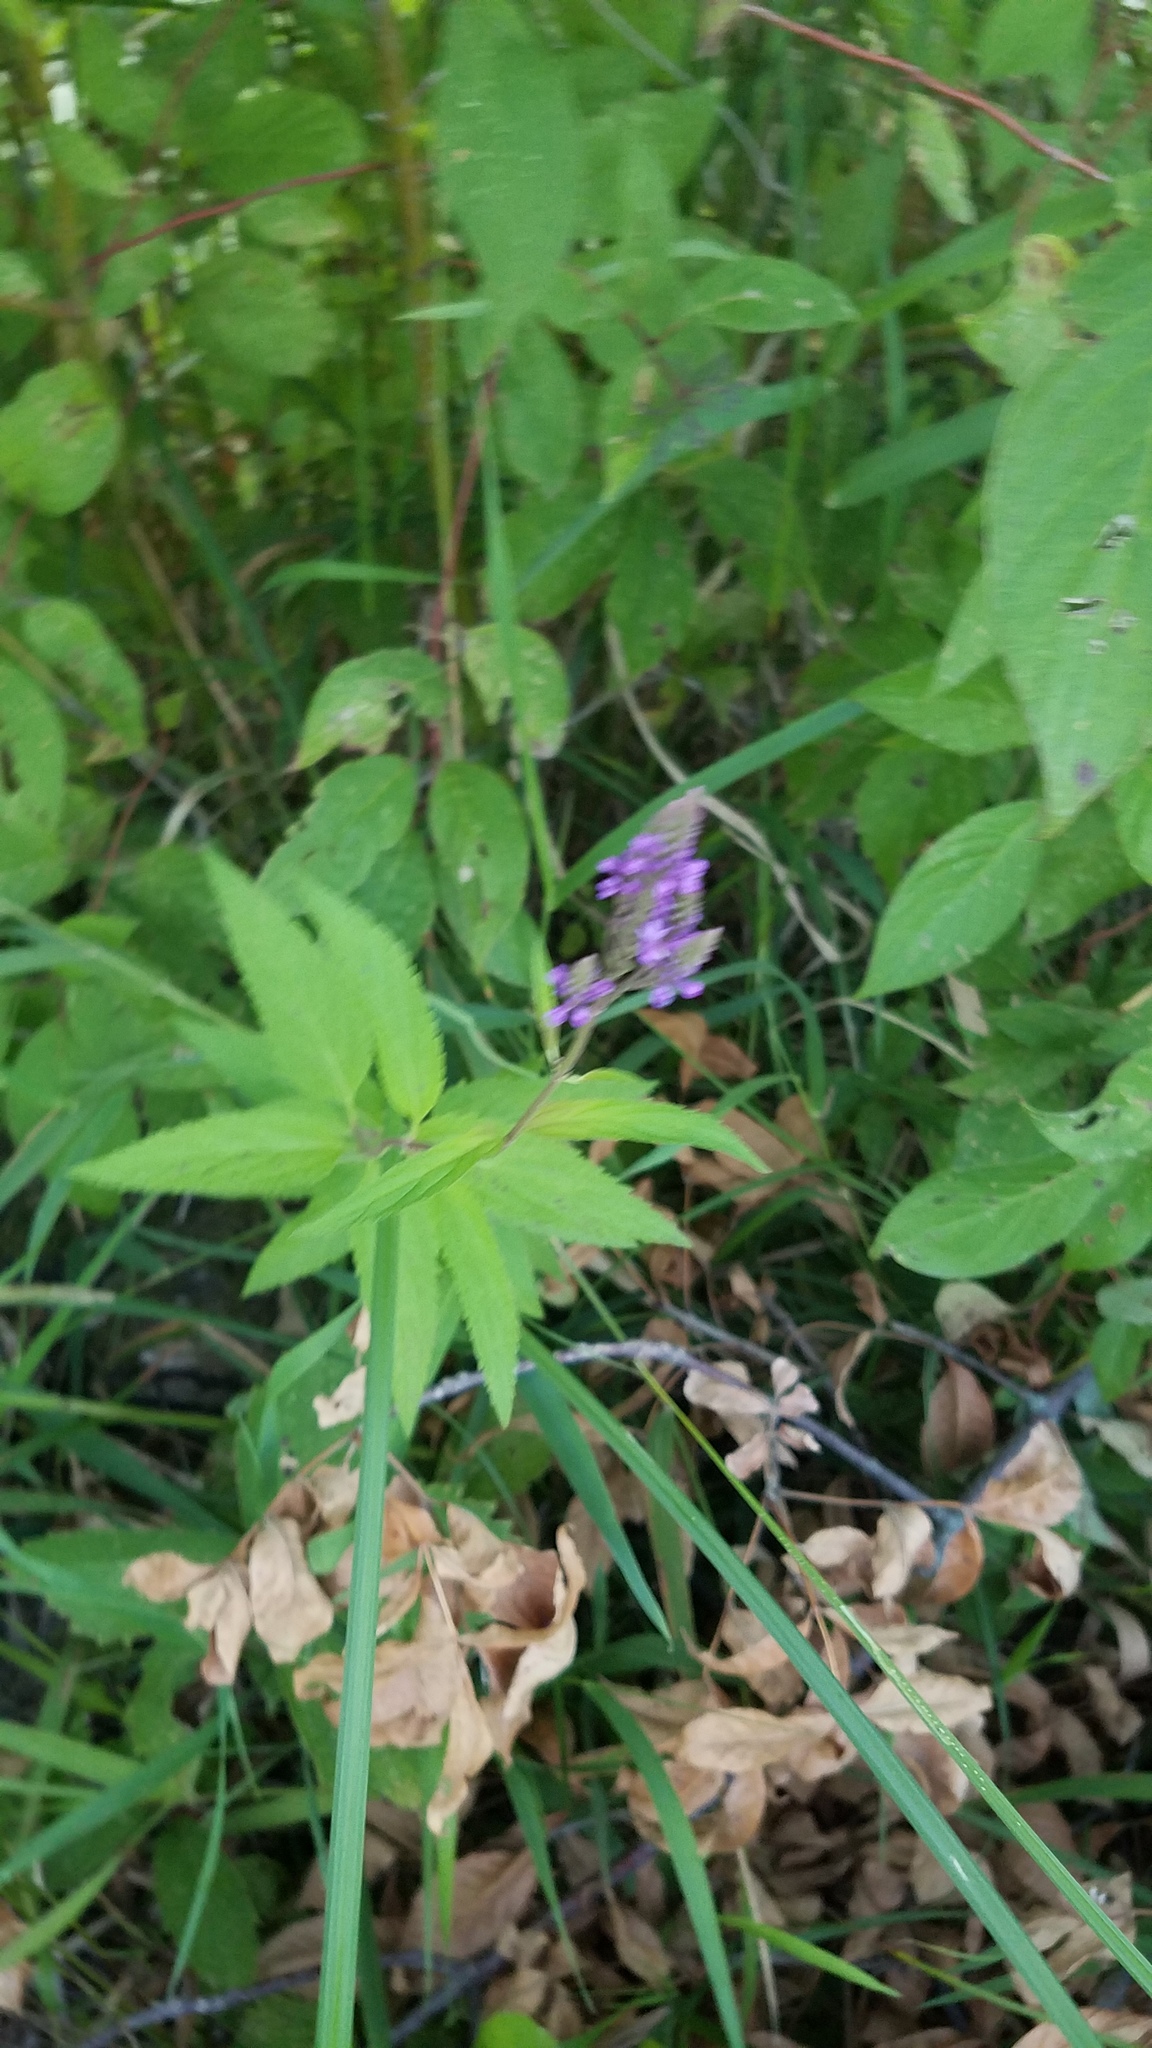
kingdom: Plantae
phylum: Tracheophyta
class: Magnoliopsida
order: Lamiales
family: Verbenaceae
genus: Verbena
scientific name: Verbena hastata
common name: American blue vervain
